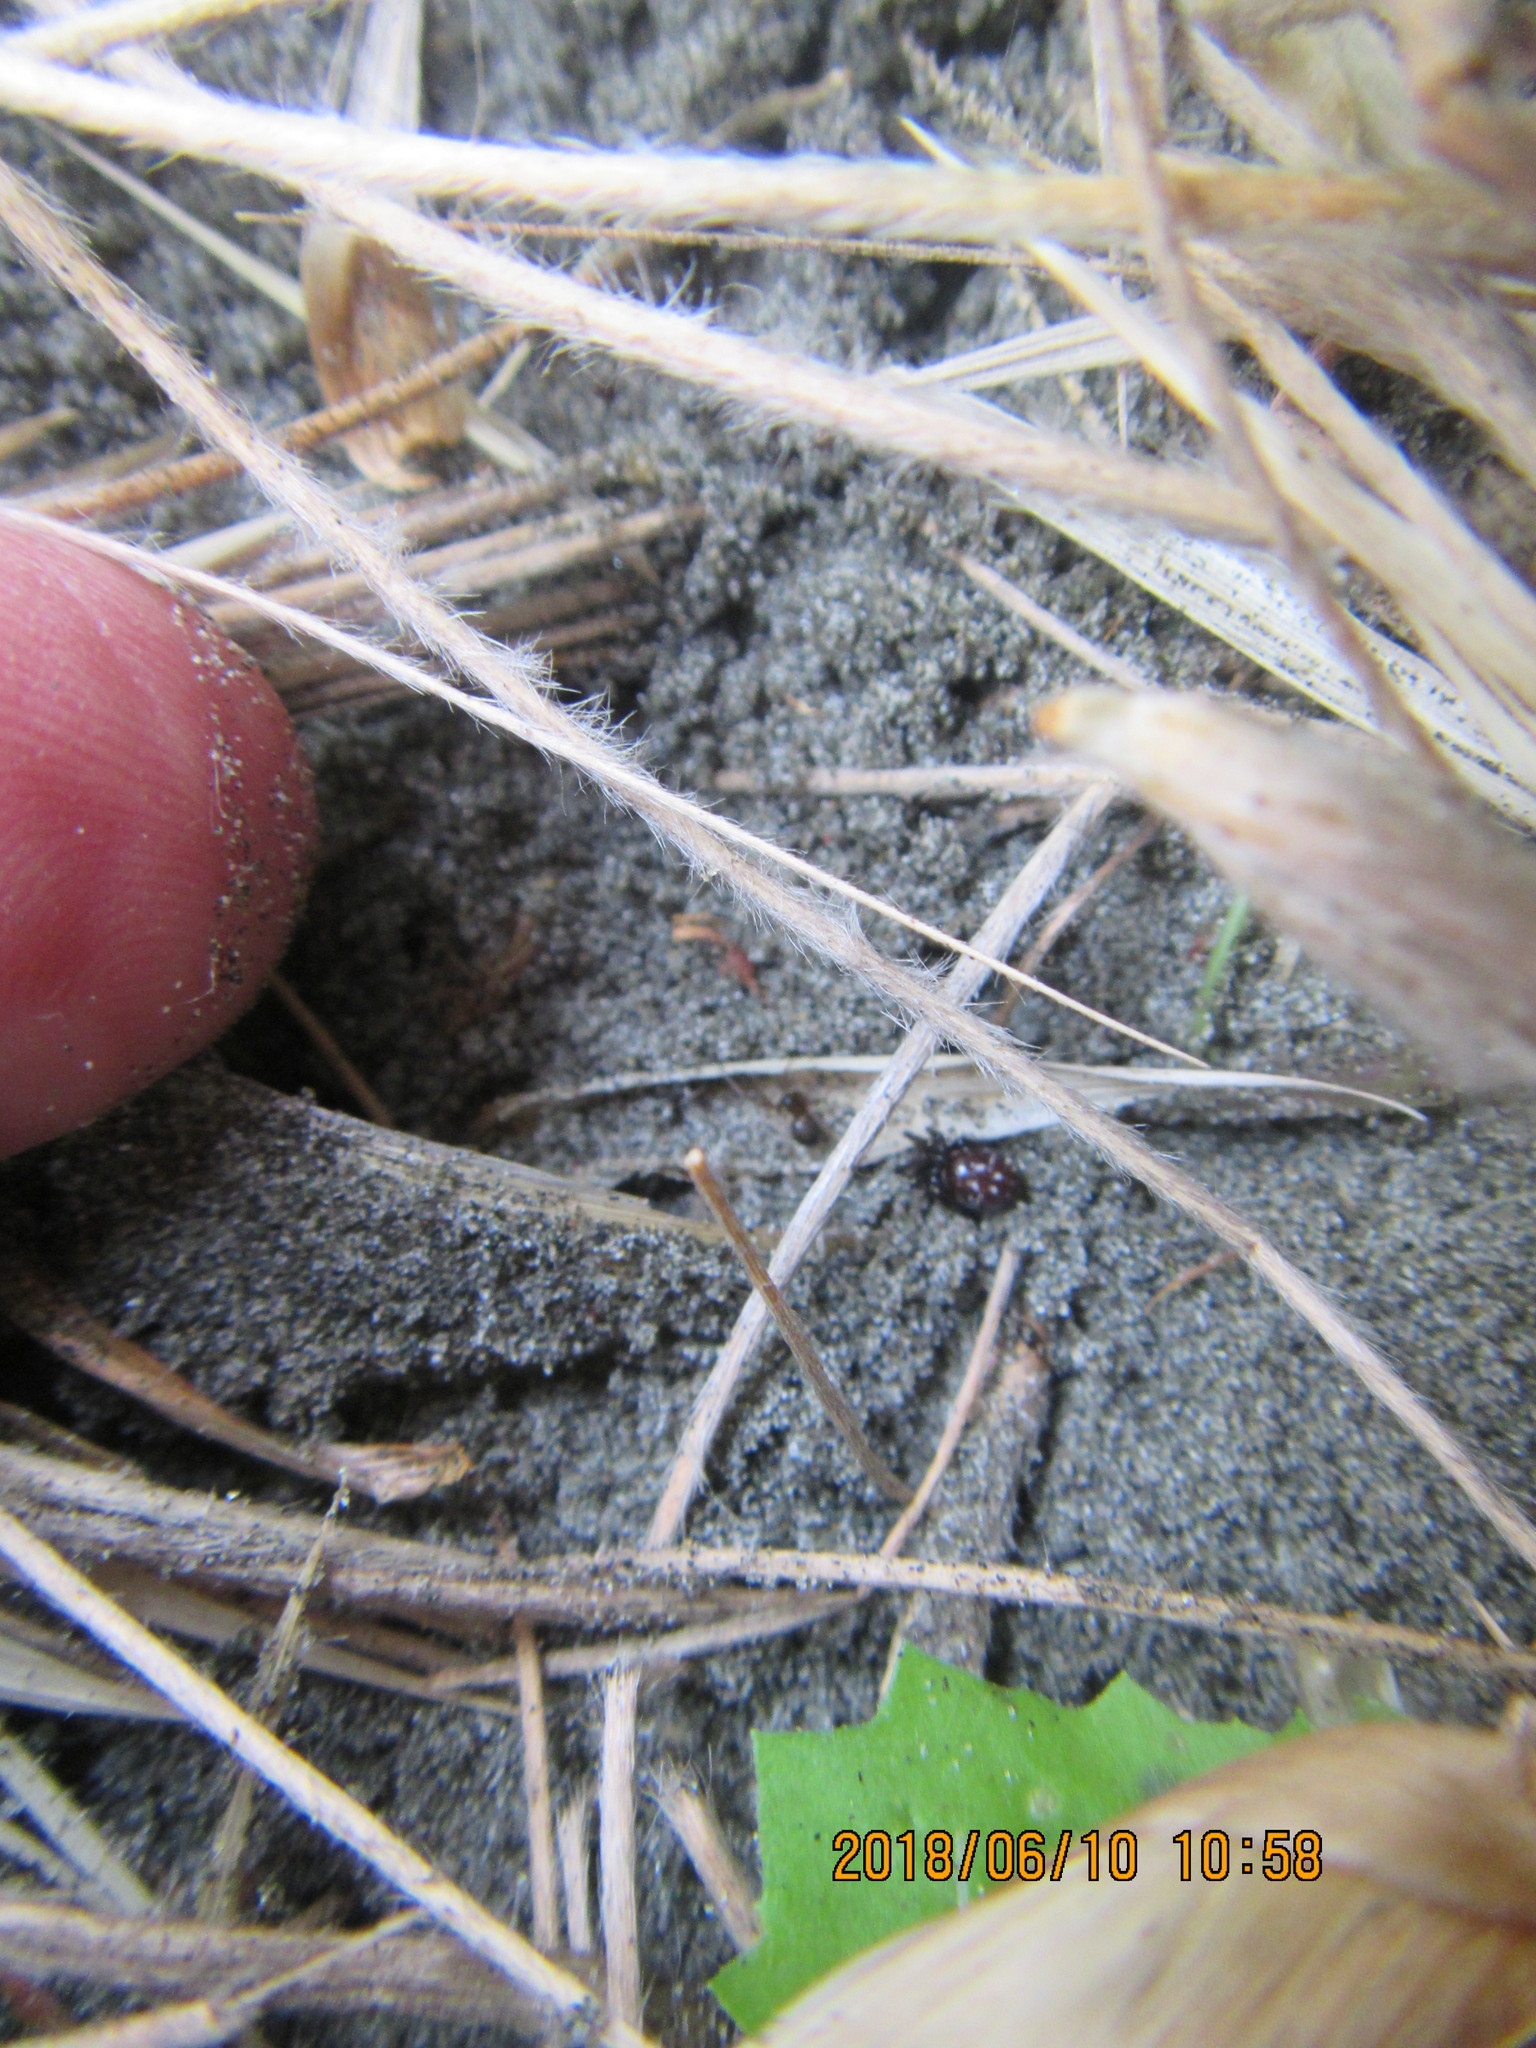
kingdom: Animalia
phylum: Arthropoda
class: Arachnida
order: Araneae
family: Theridiidae
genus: Latrodectus
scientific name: Latrodectus katipo
